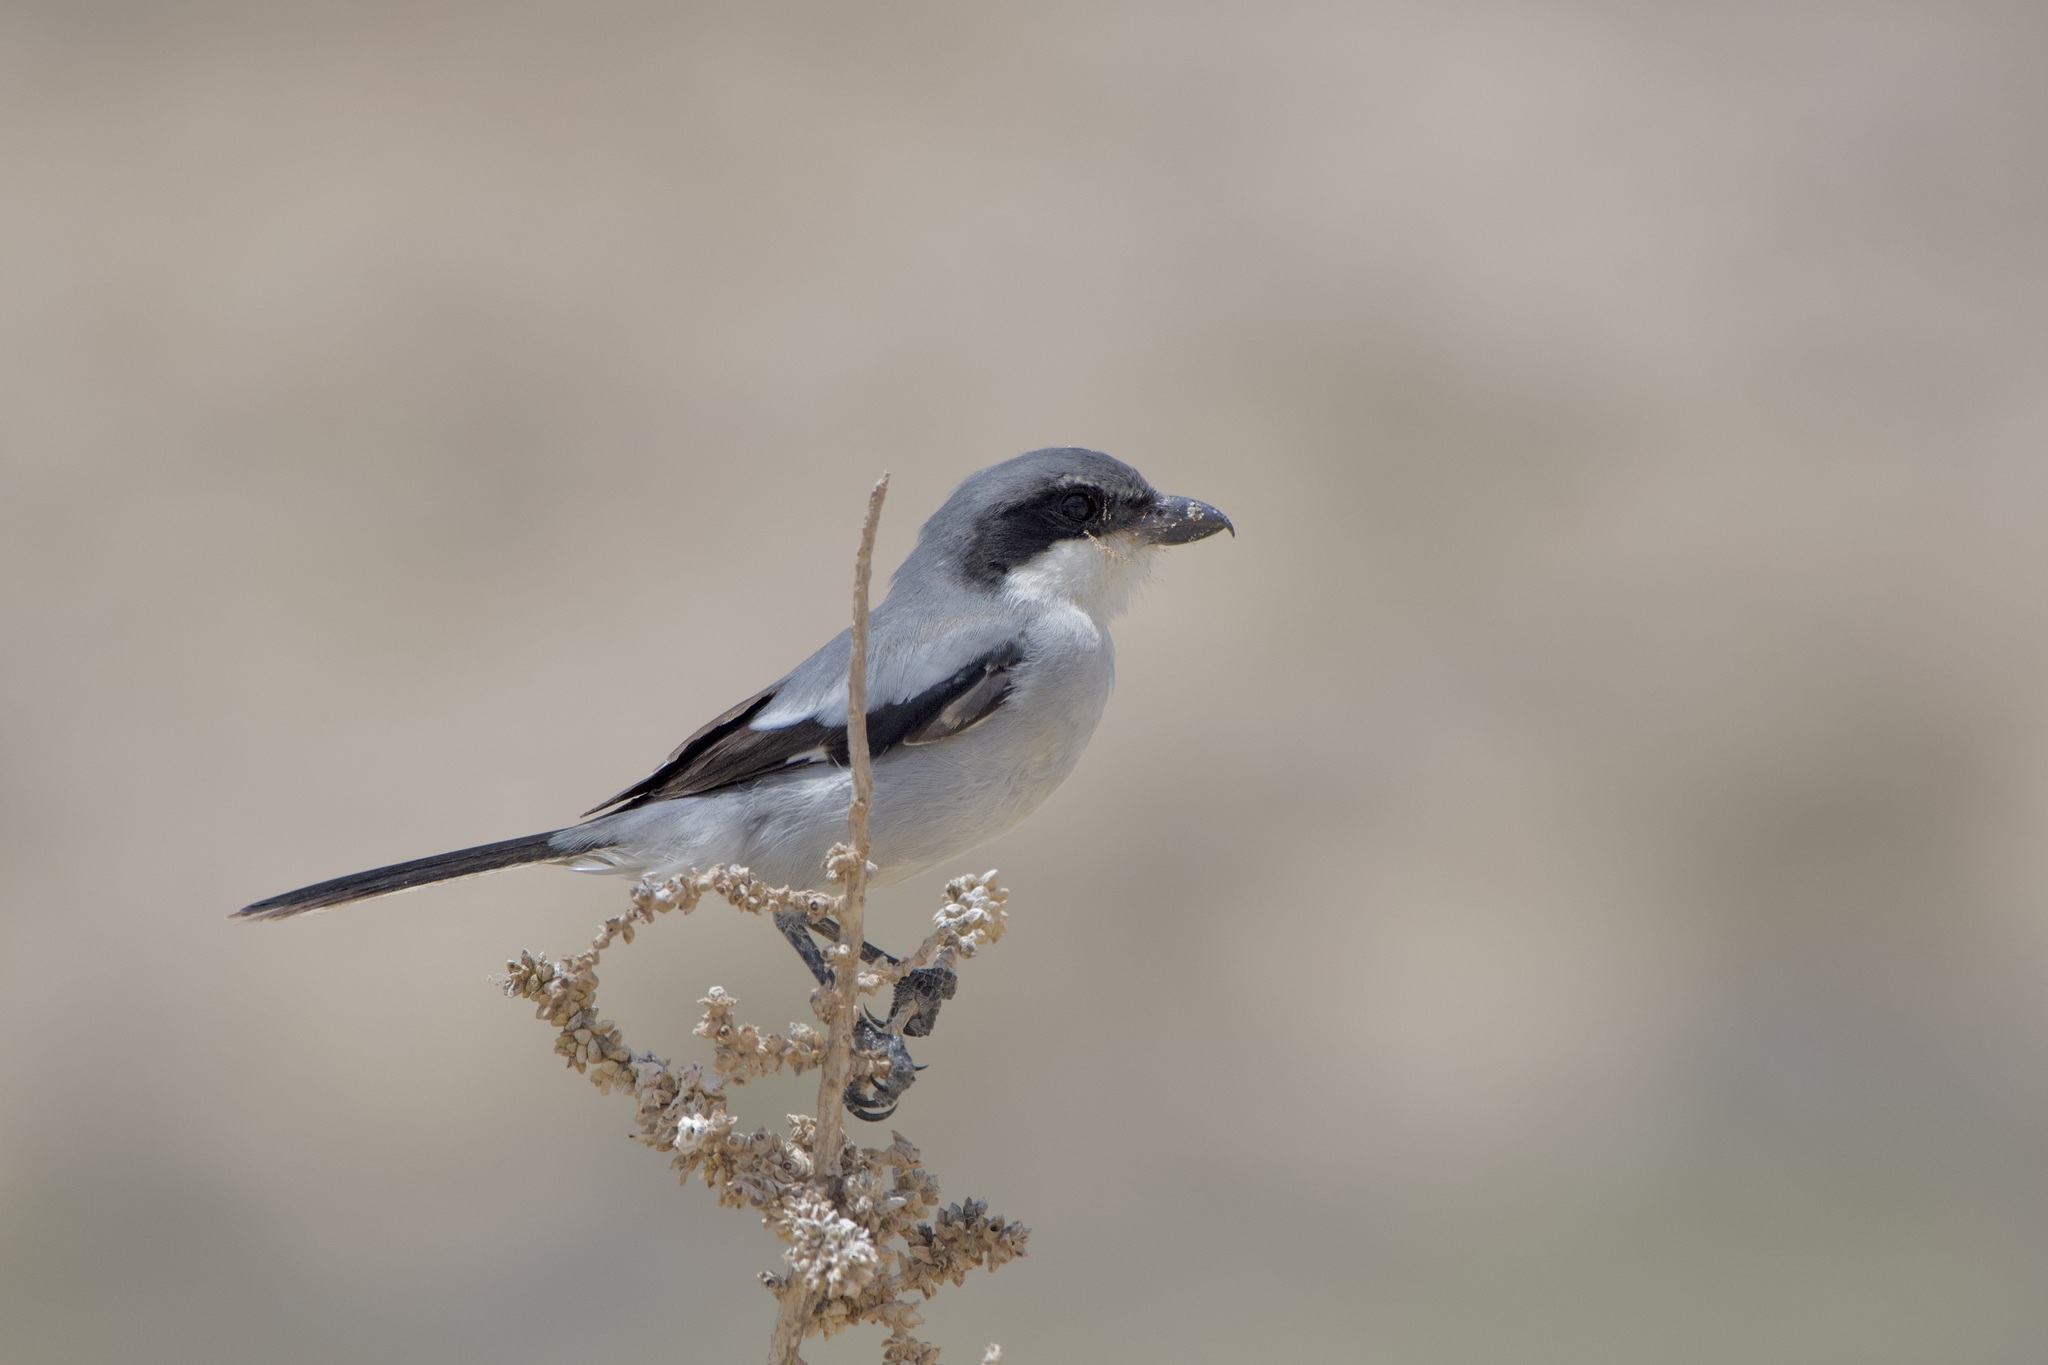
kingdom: Animalia
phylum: Chordata
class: Aves
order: Passeriformes
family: Laniidae
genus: Lanius
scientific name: Lanius excubitor
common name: Great grey shrike
